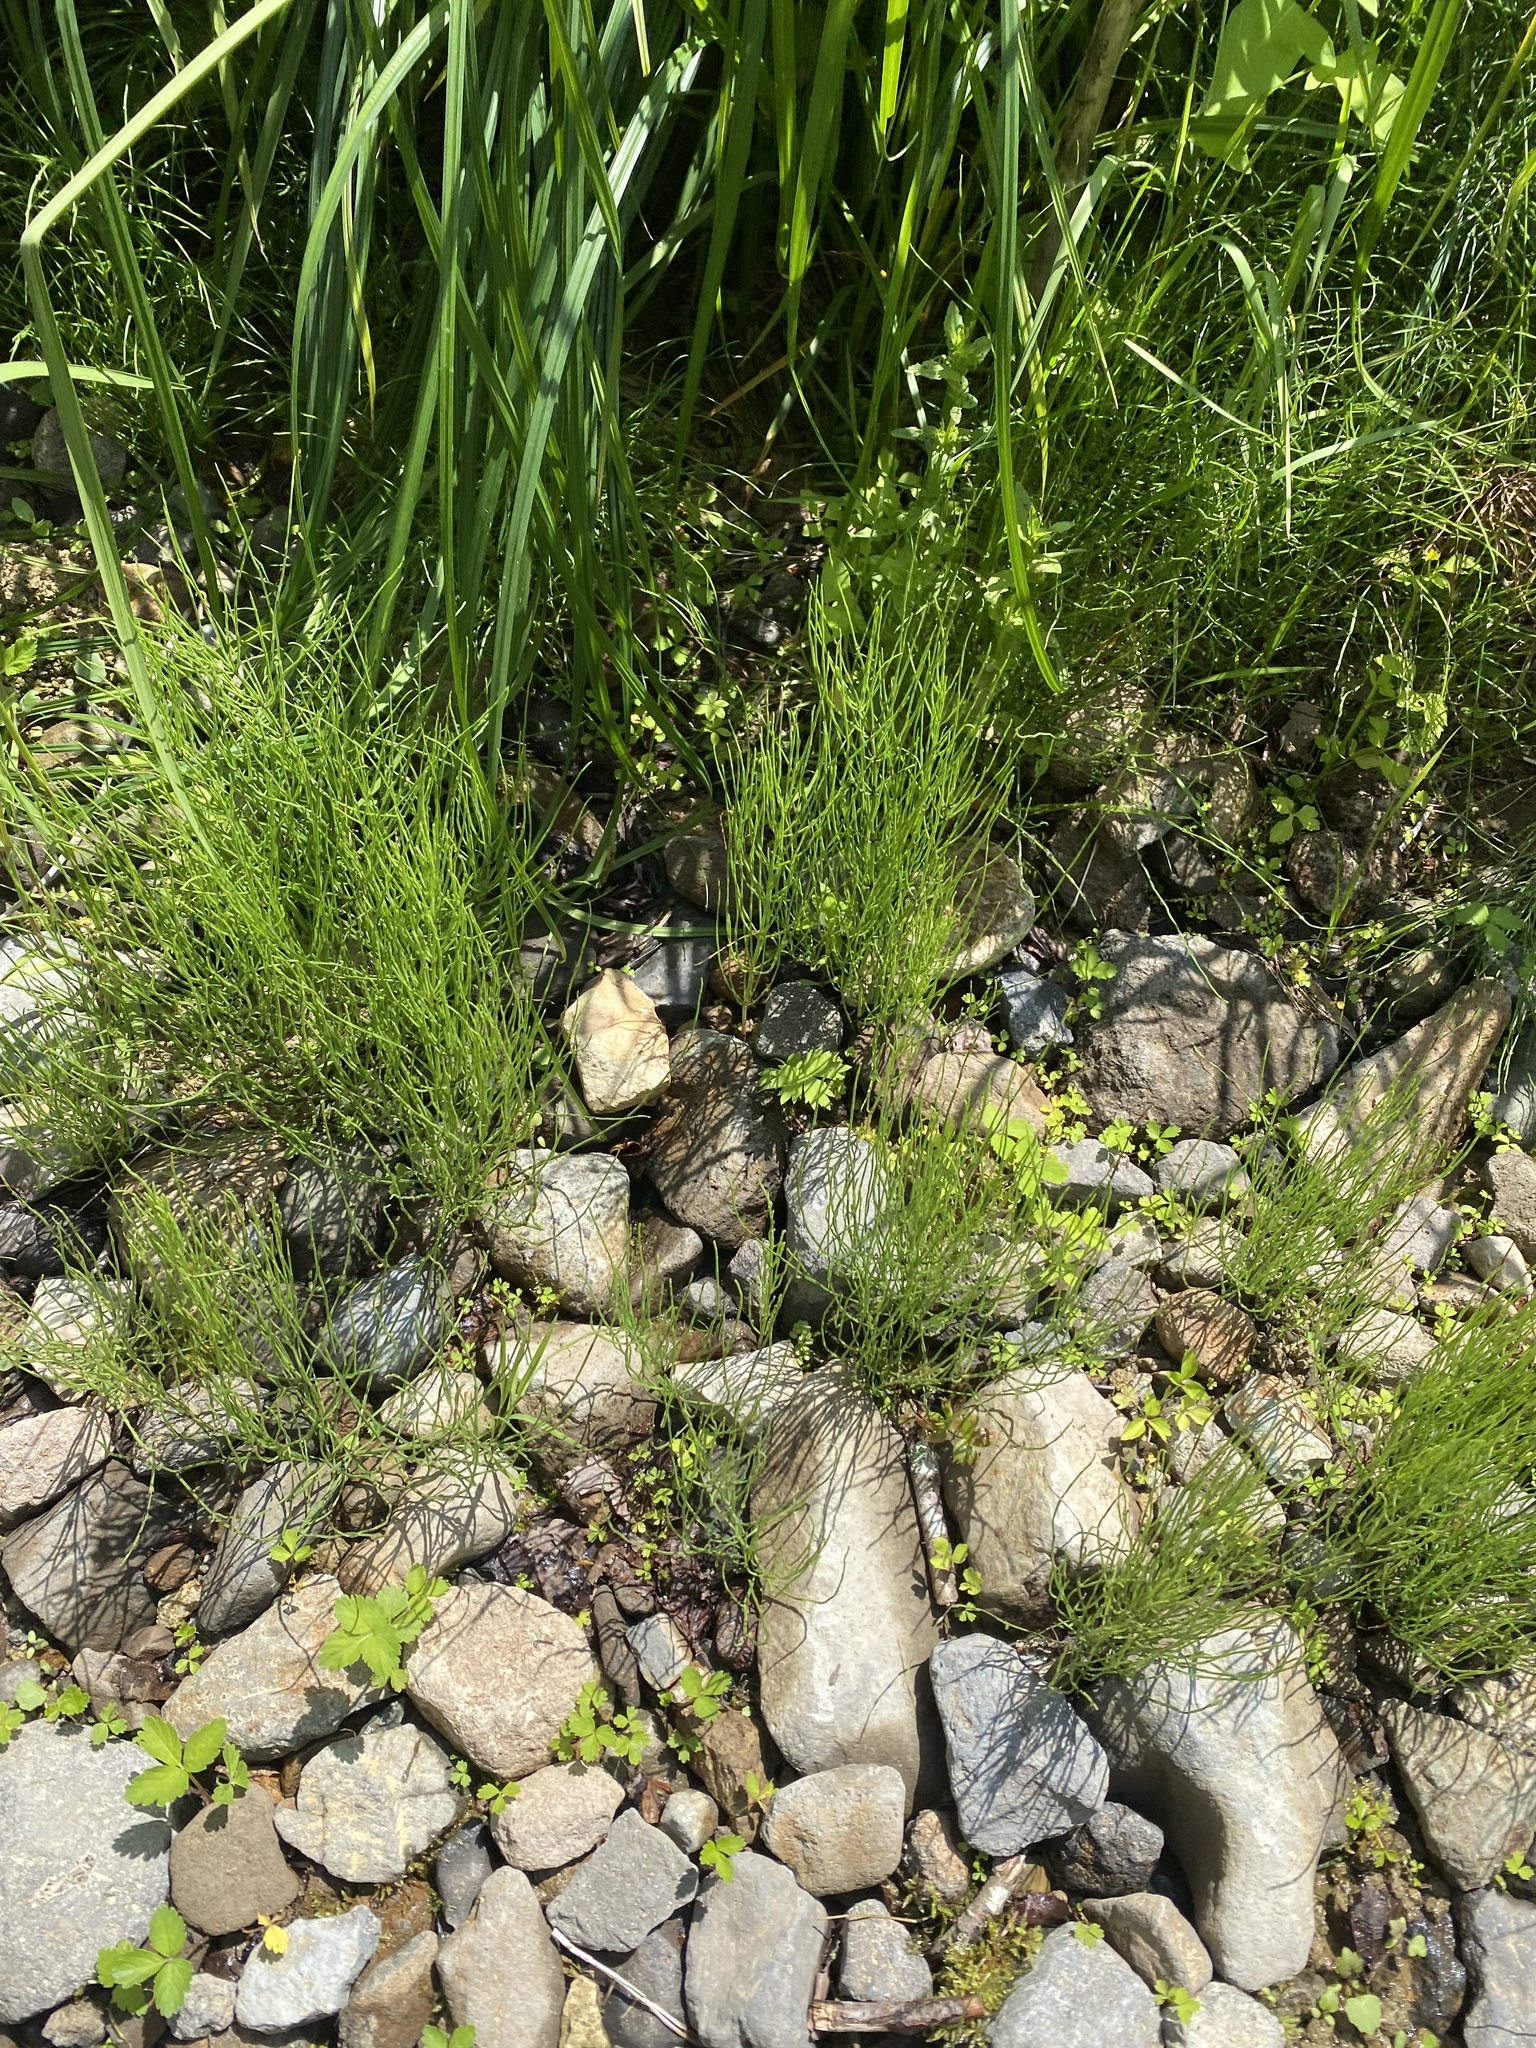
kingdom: Plantae
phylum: Tracheophyta
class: Polypodiopsida
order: Equisetales
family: Equisetaceae
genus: Equisetum
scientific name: Equisetum arvense
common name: Field horsetail
